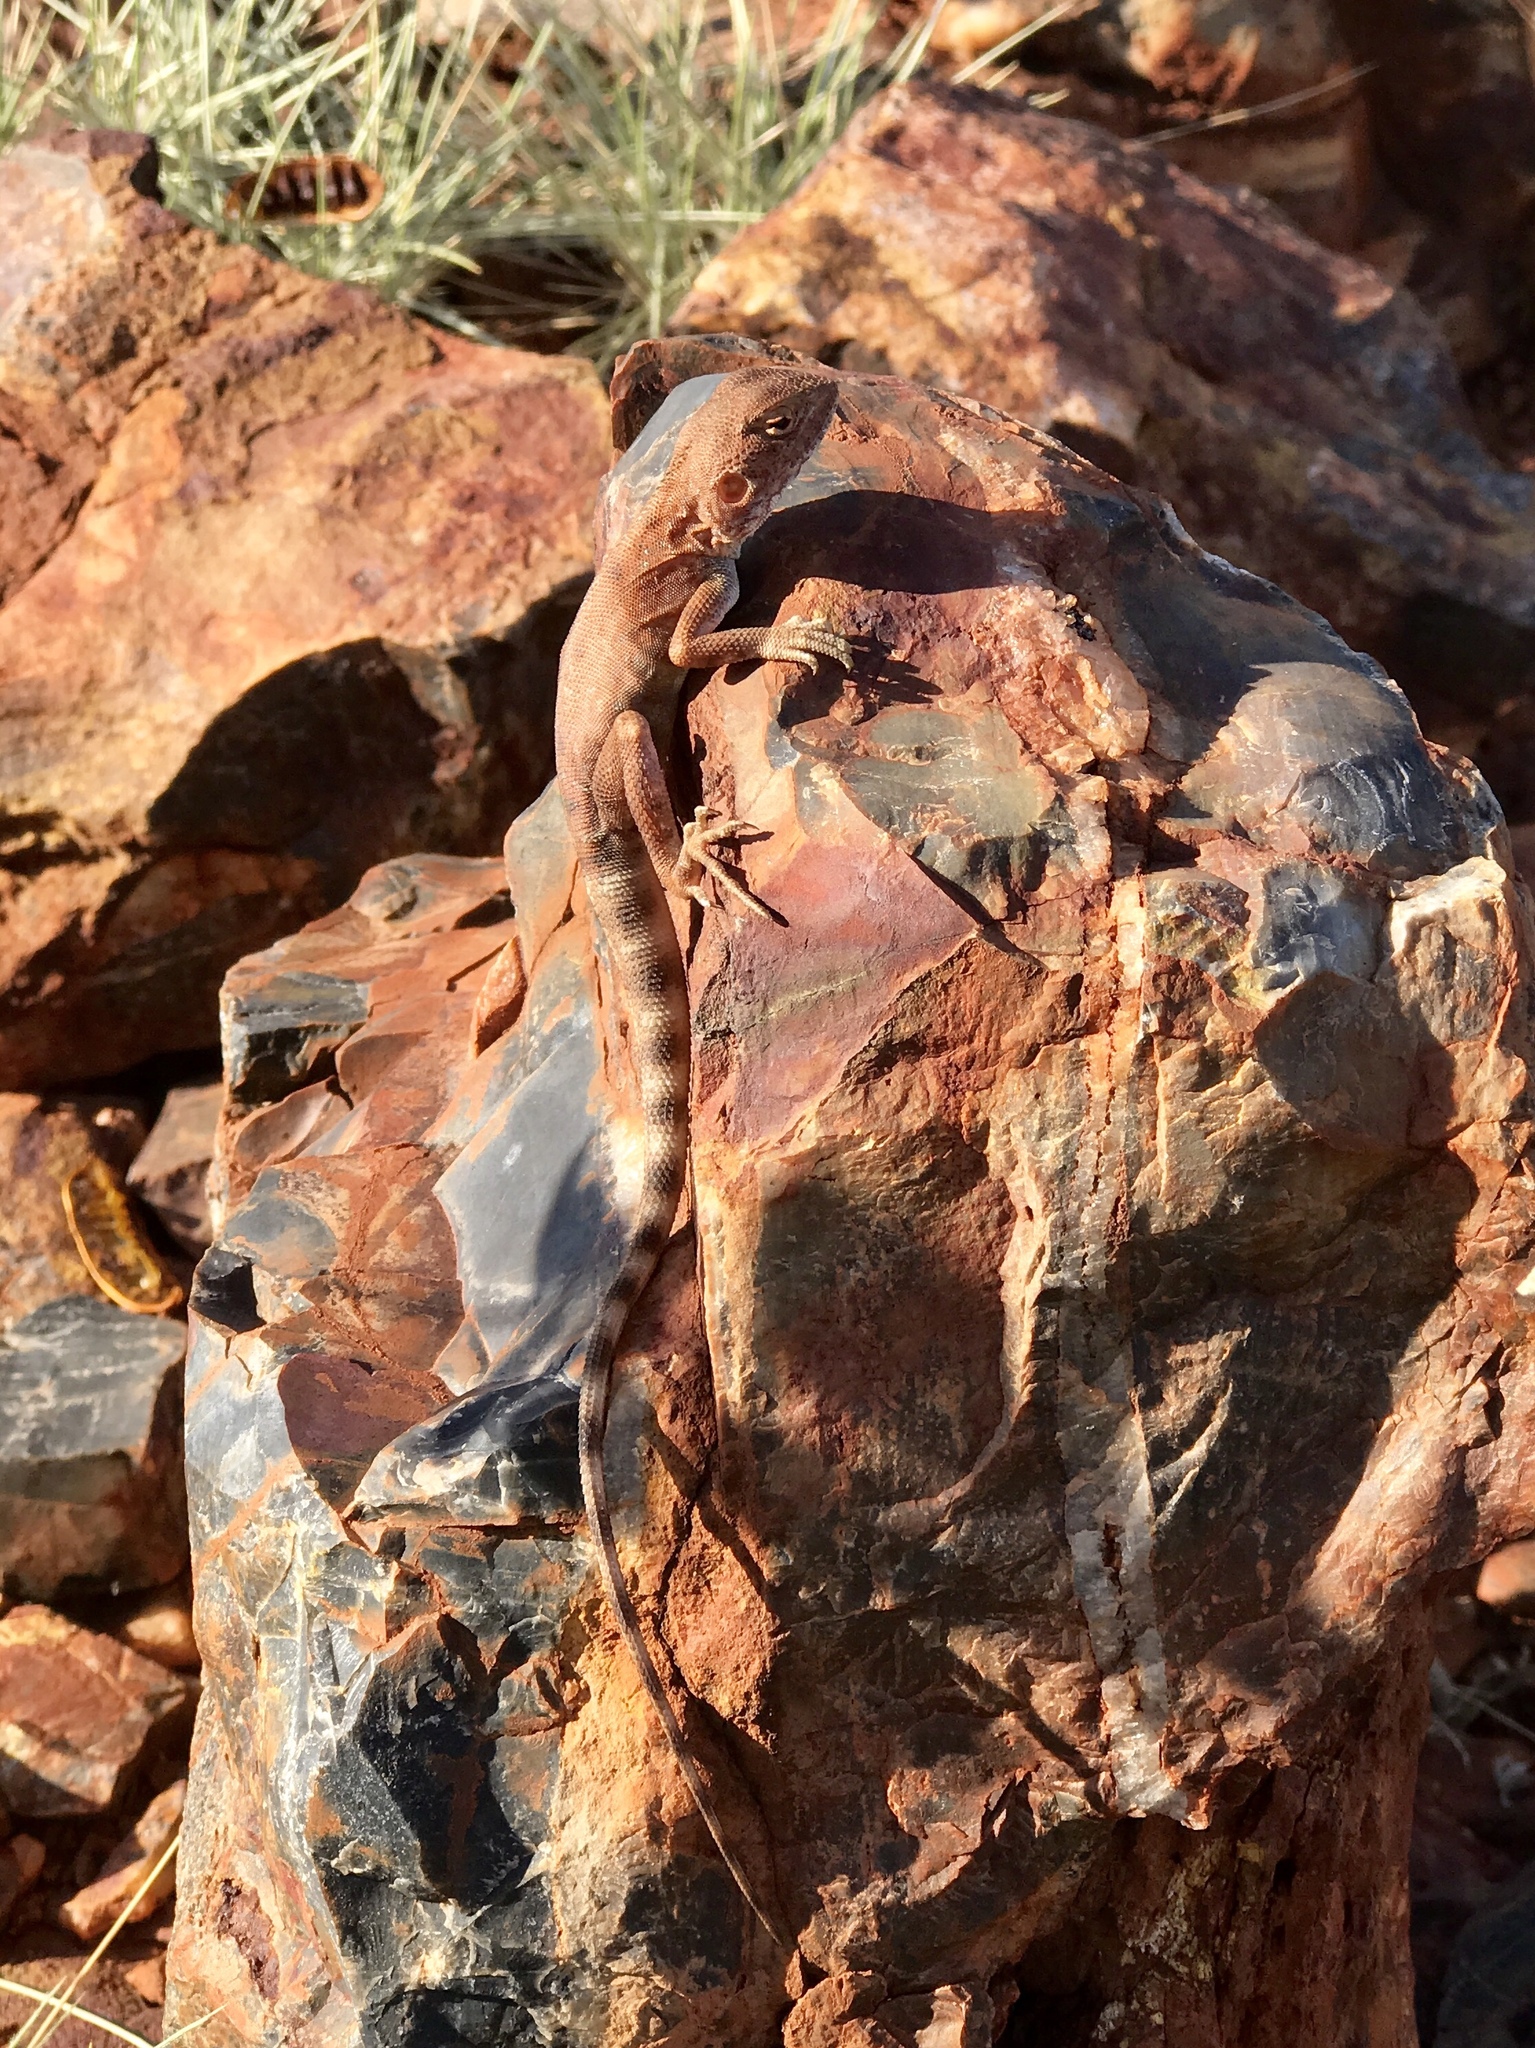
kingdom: Animalia
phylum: Chordata
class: Squamata
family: Agamidae
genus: Ctenophorus
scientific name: Ctenophorus caudicinctus
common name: Ring-tailed dragon
